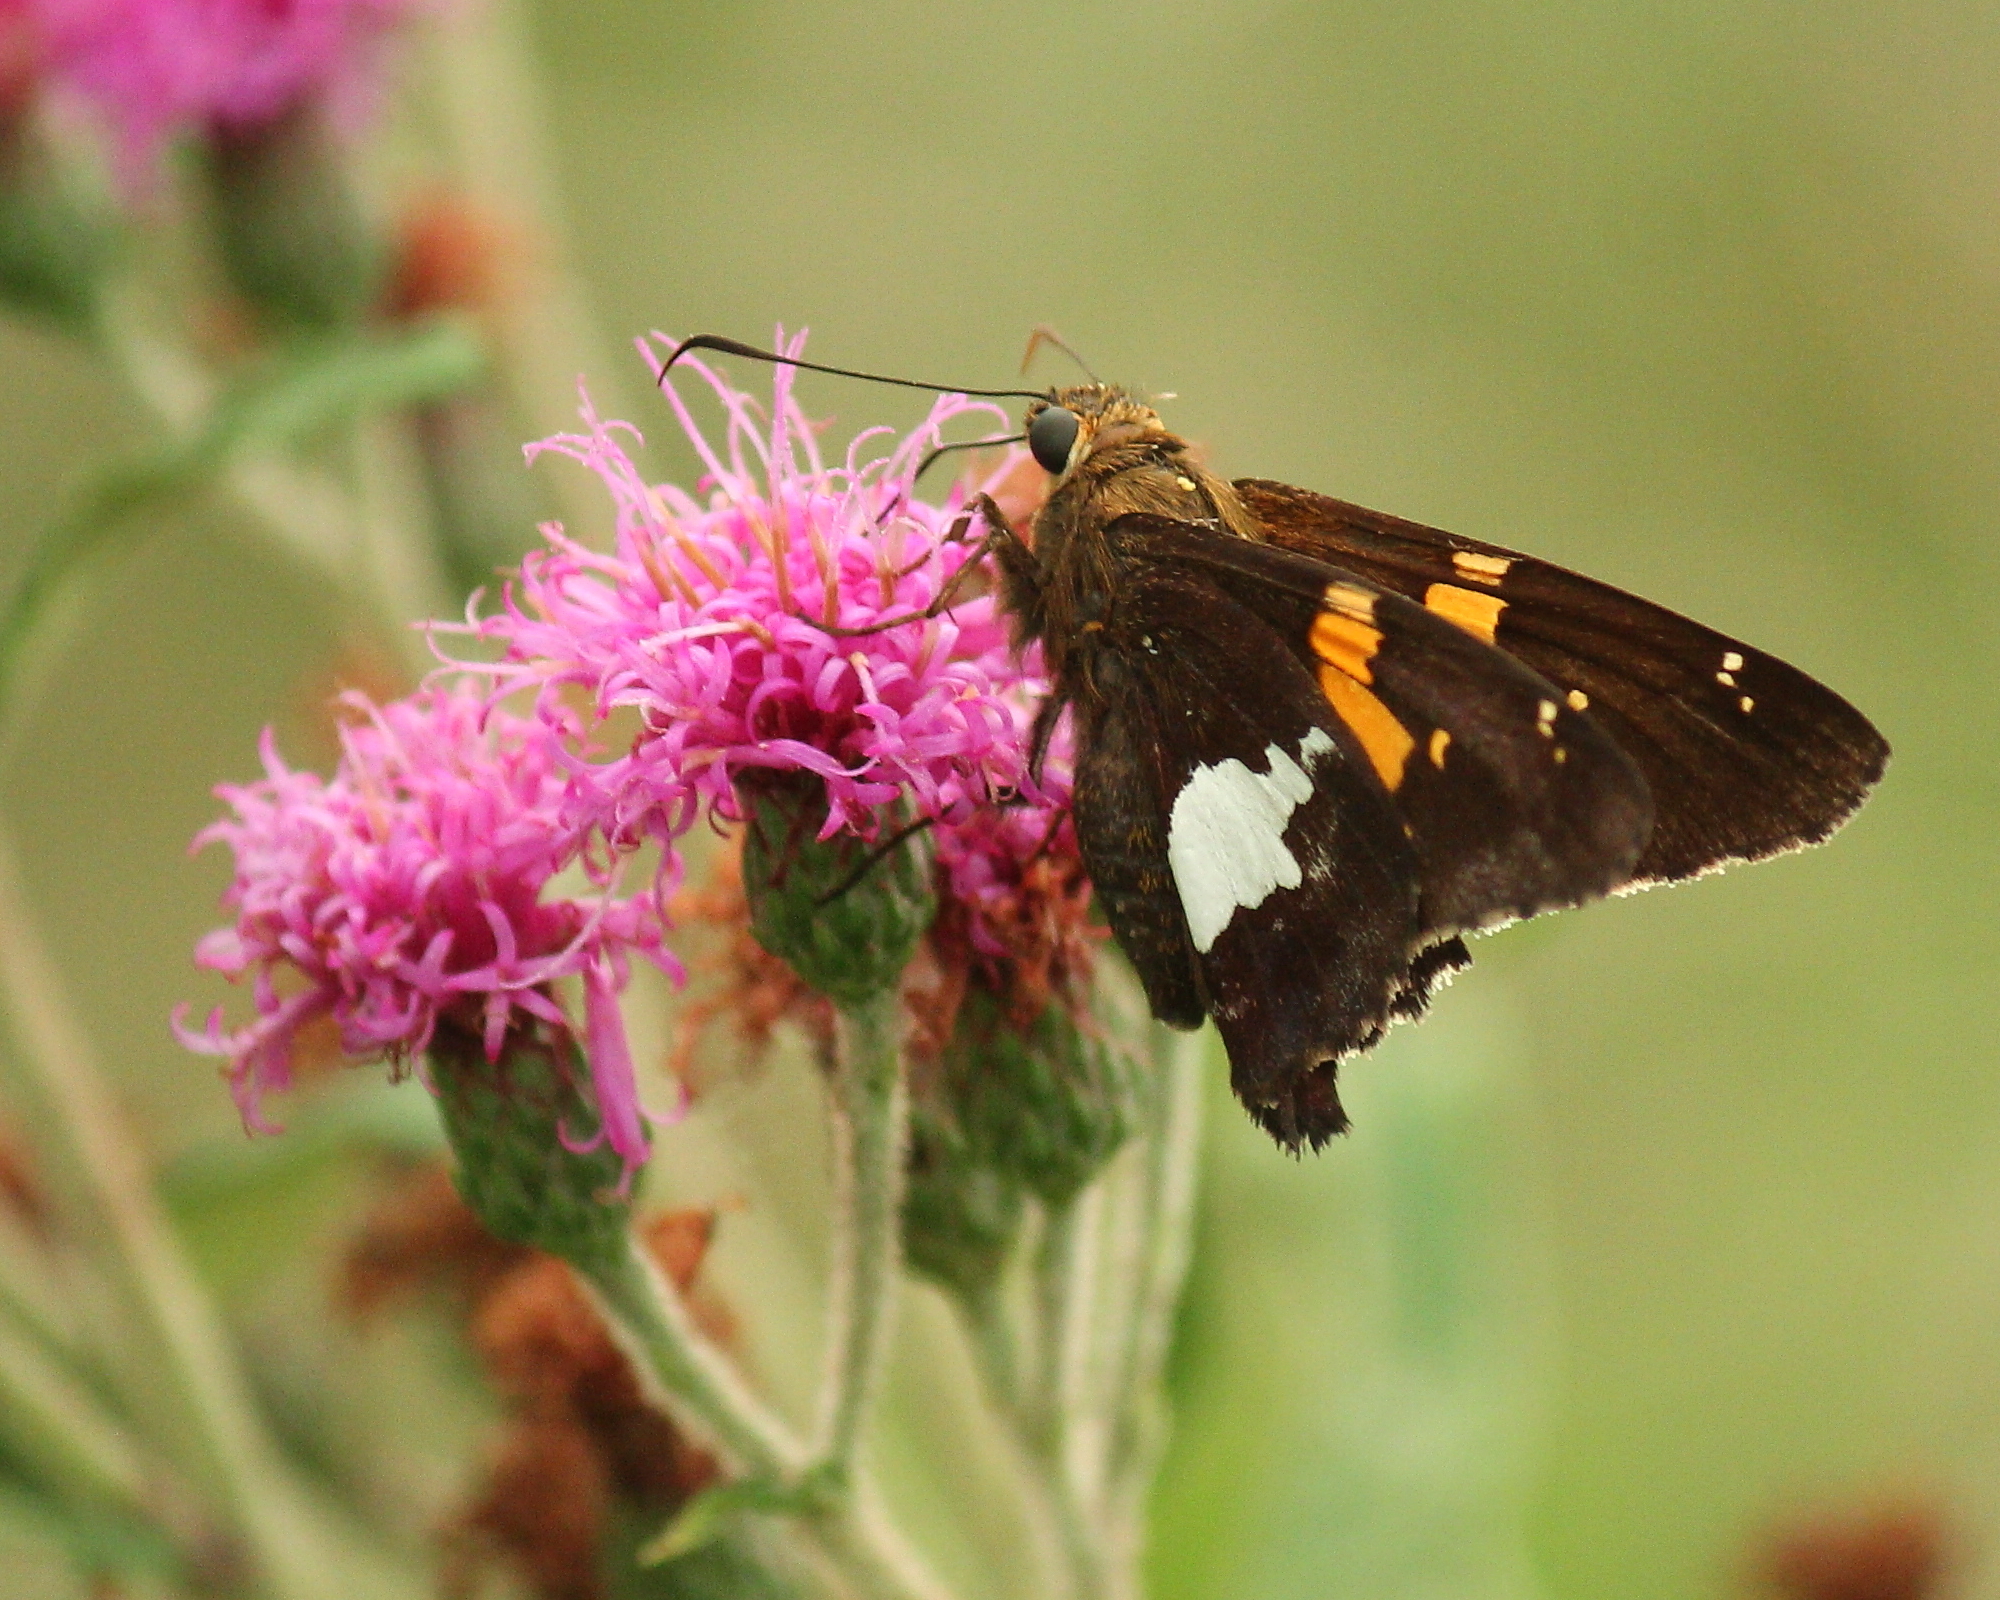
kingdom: Animalia
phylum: Arthropoda
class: Insecta
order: Lepidoptera
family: Hesperiidae
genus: Epargyreus
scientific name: Epargyreus clarus
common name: Silver-spotted skipper
